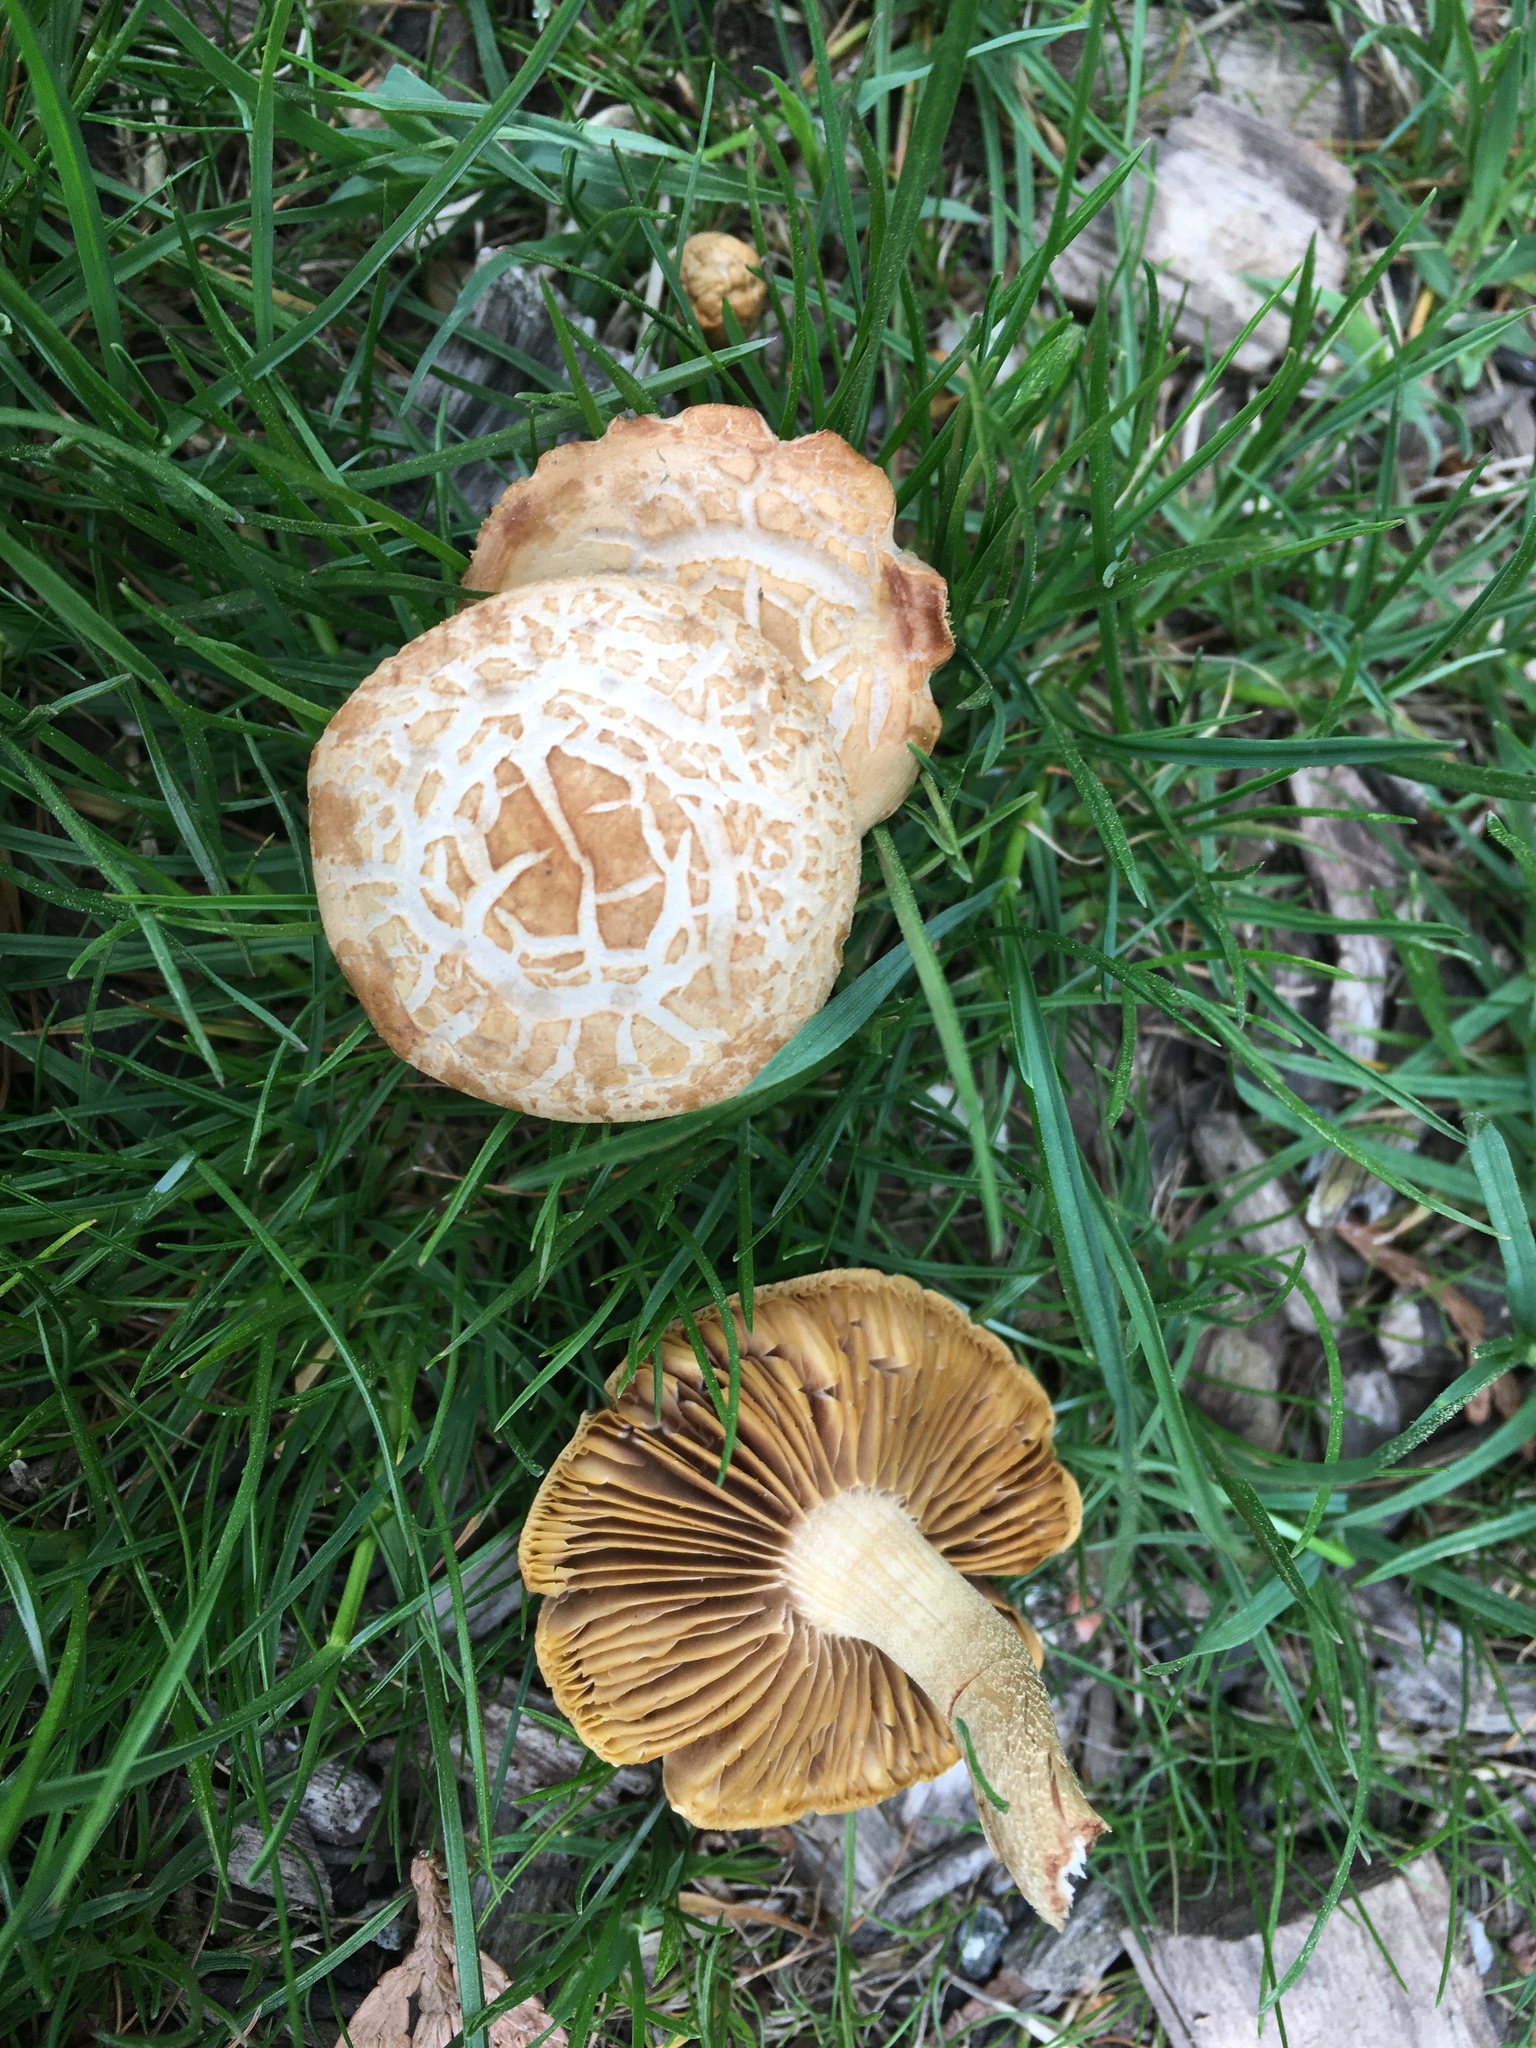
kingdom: Fungi
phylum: Basidiomycota
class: Agaricomycetes
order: Agaricales
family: Strophariaceae
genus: Agrocybe
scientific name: Agrocybe praecox
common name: Spring fieldcap
